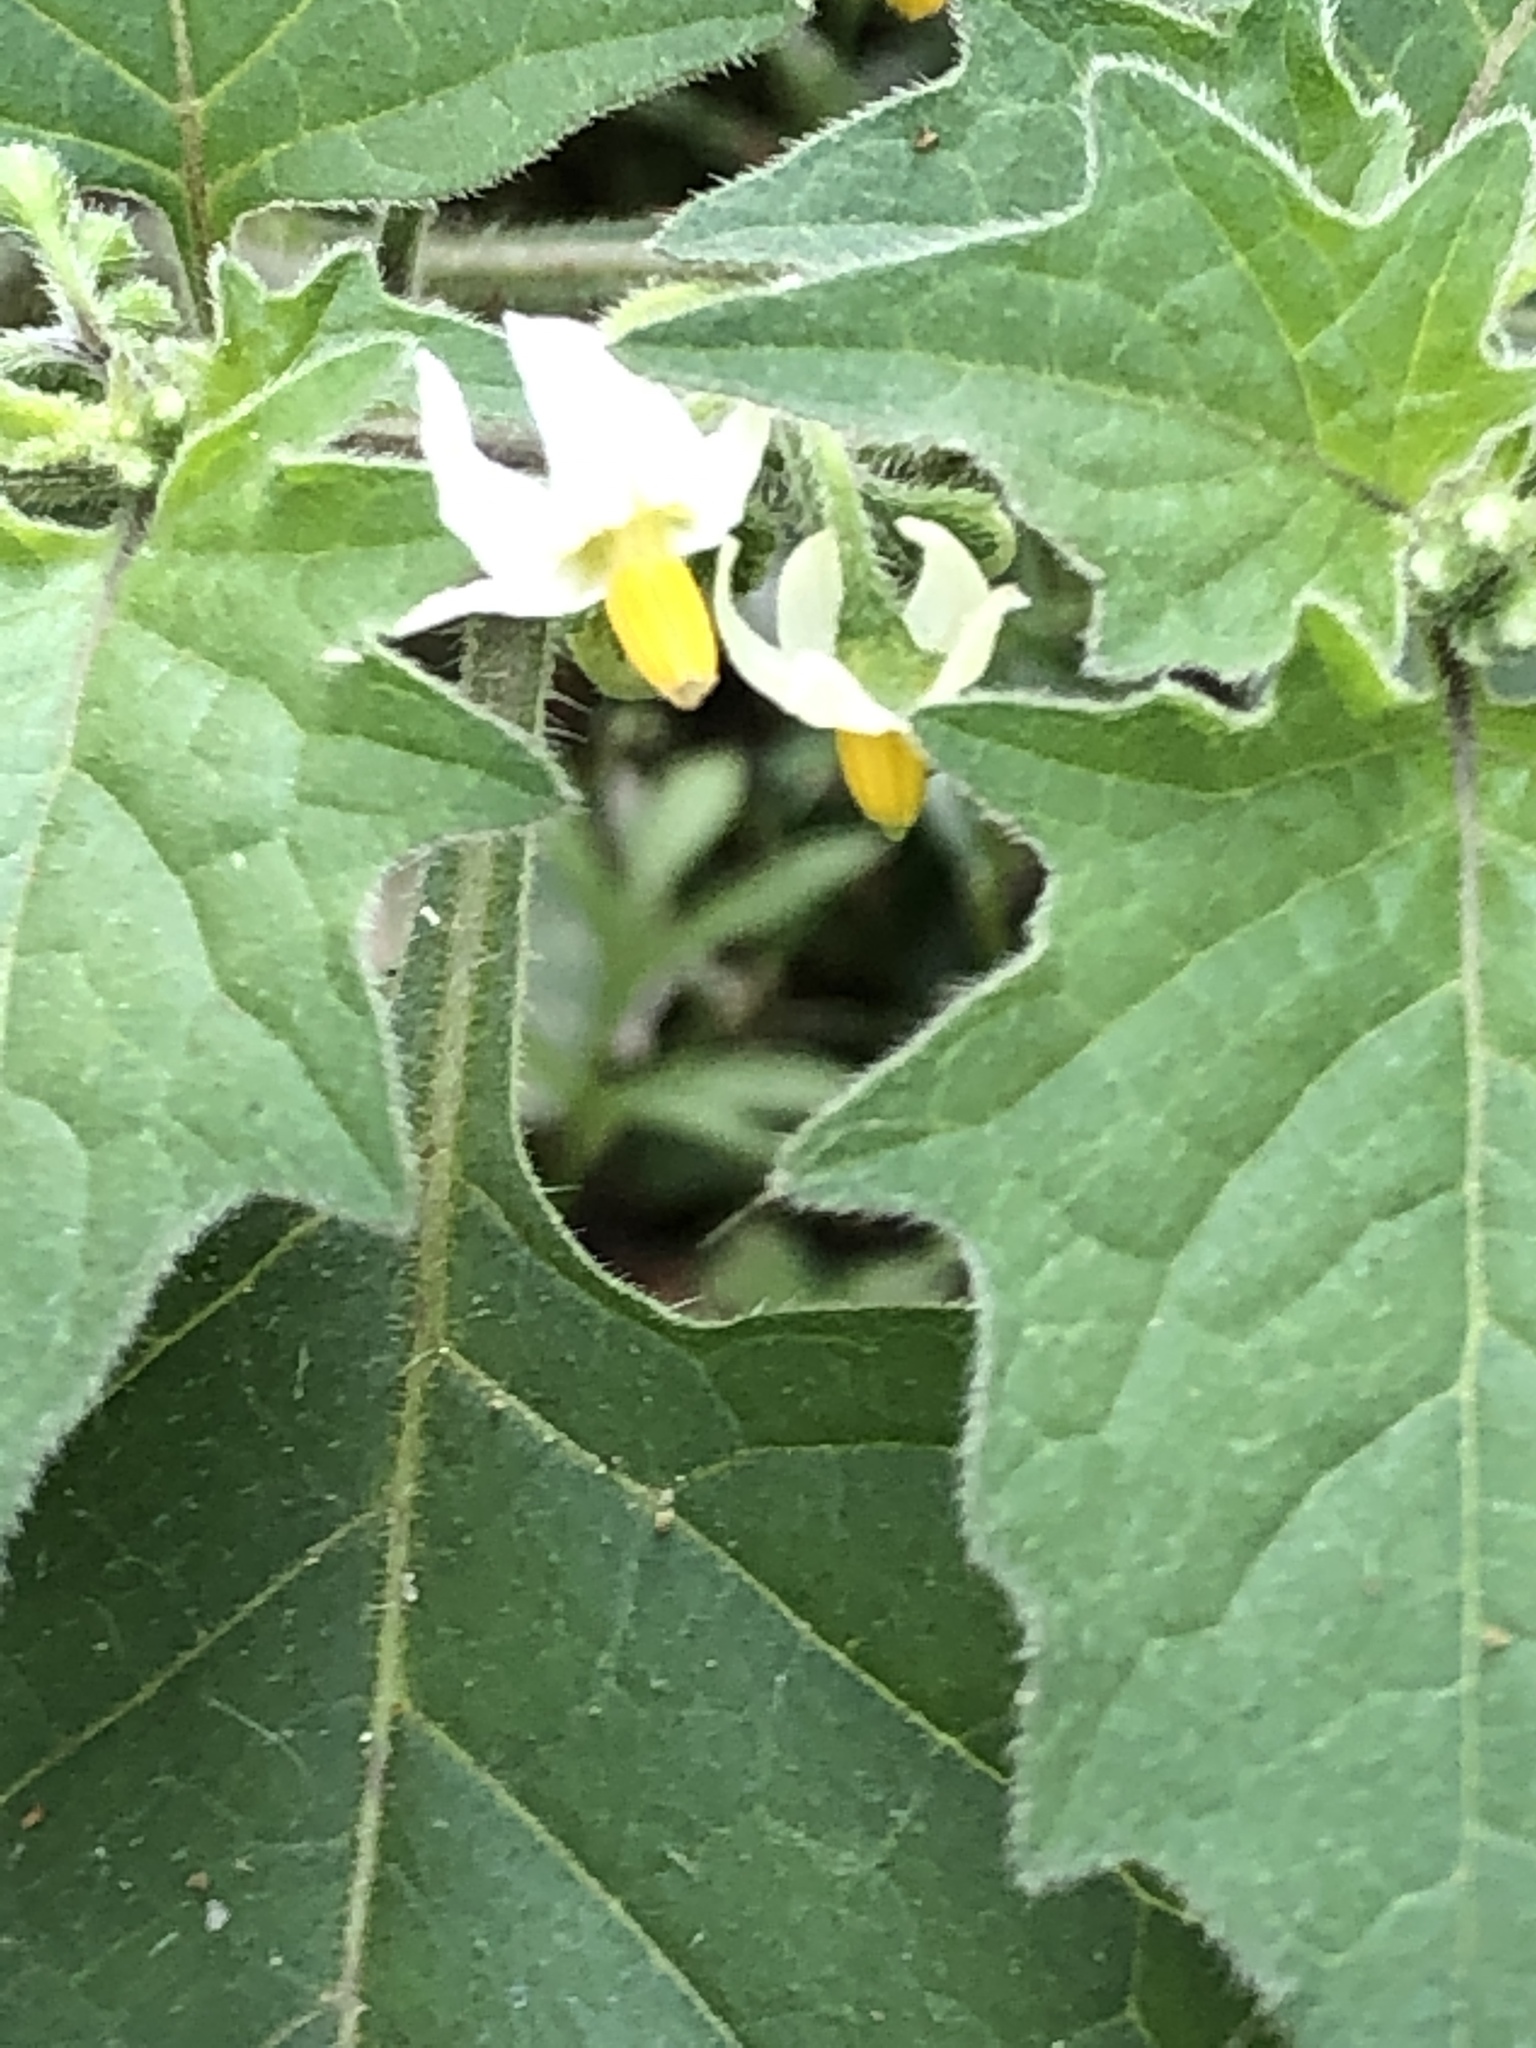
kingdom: Plantae
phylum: Tracheophyta
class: Magnoliopsida
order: Solanales
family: Solanaceae
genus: Solanum
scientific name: Solanum nigrum
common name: Black nightshade
